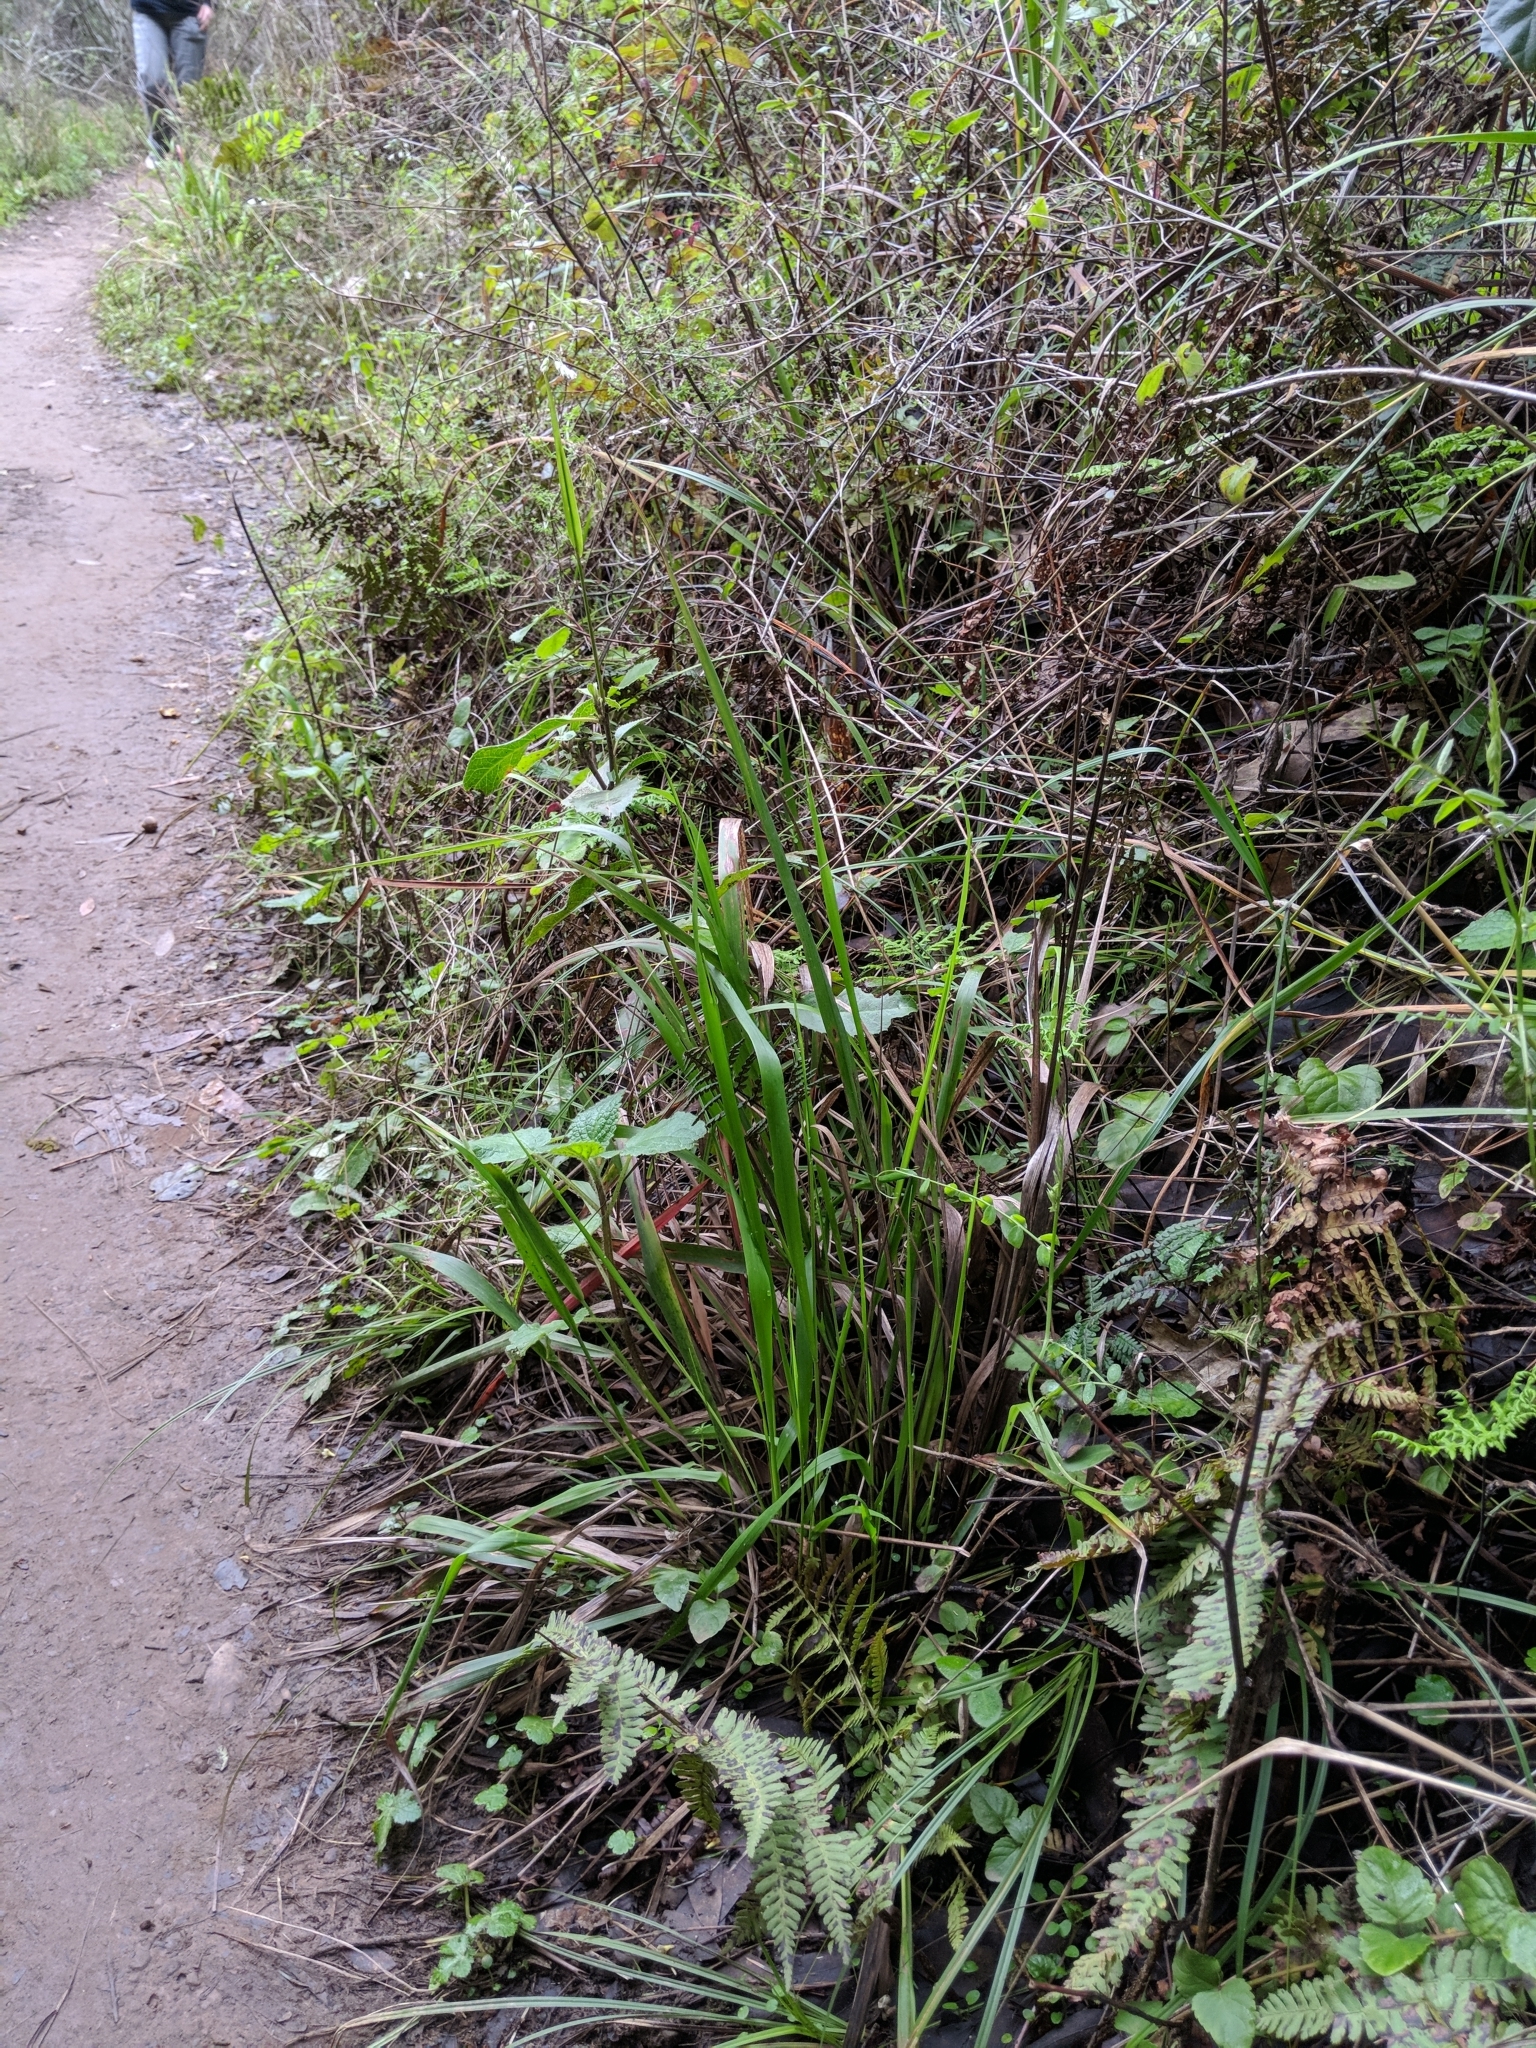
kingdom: Plantae
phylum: Tracheophyta
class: Liliopsida
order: Poales
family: Poaceae
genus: Anthoxanthum
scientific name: Anthoxanthum occidentale
